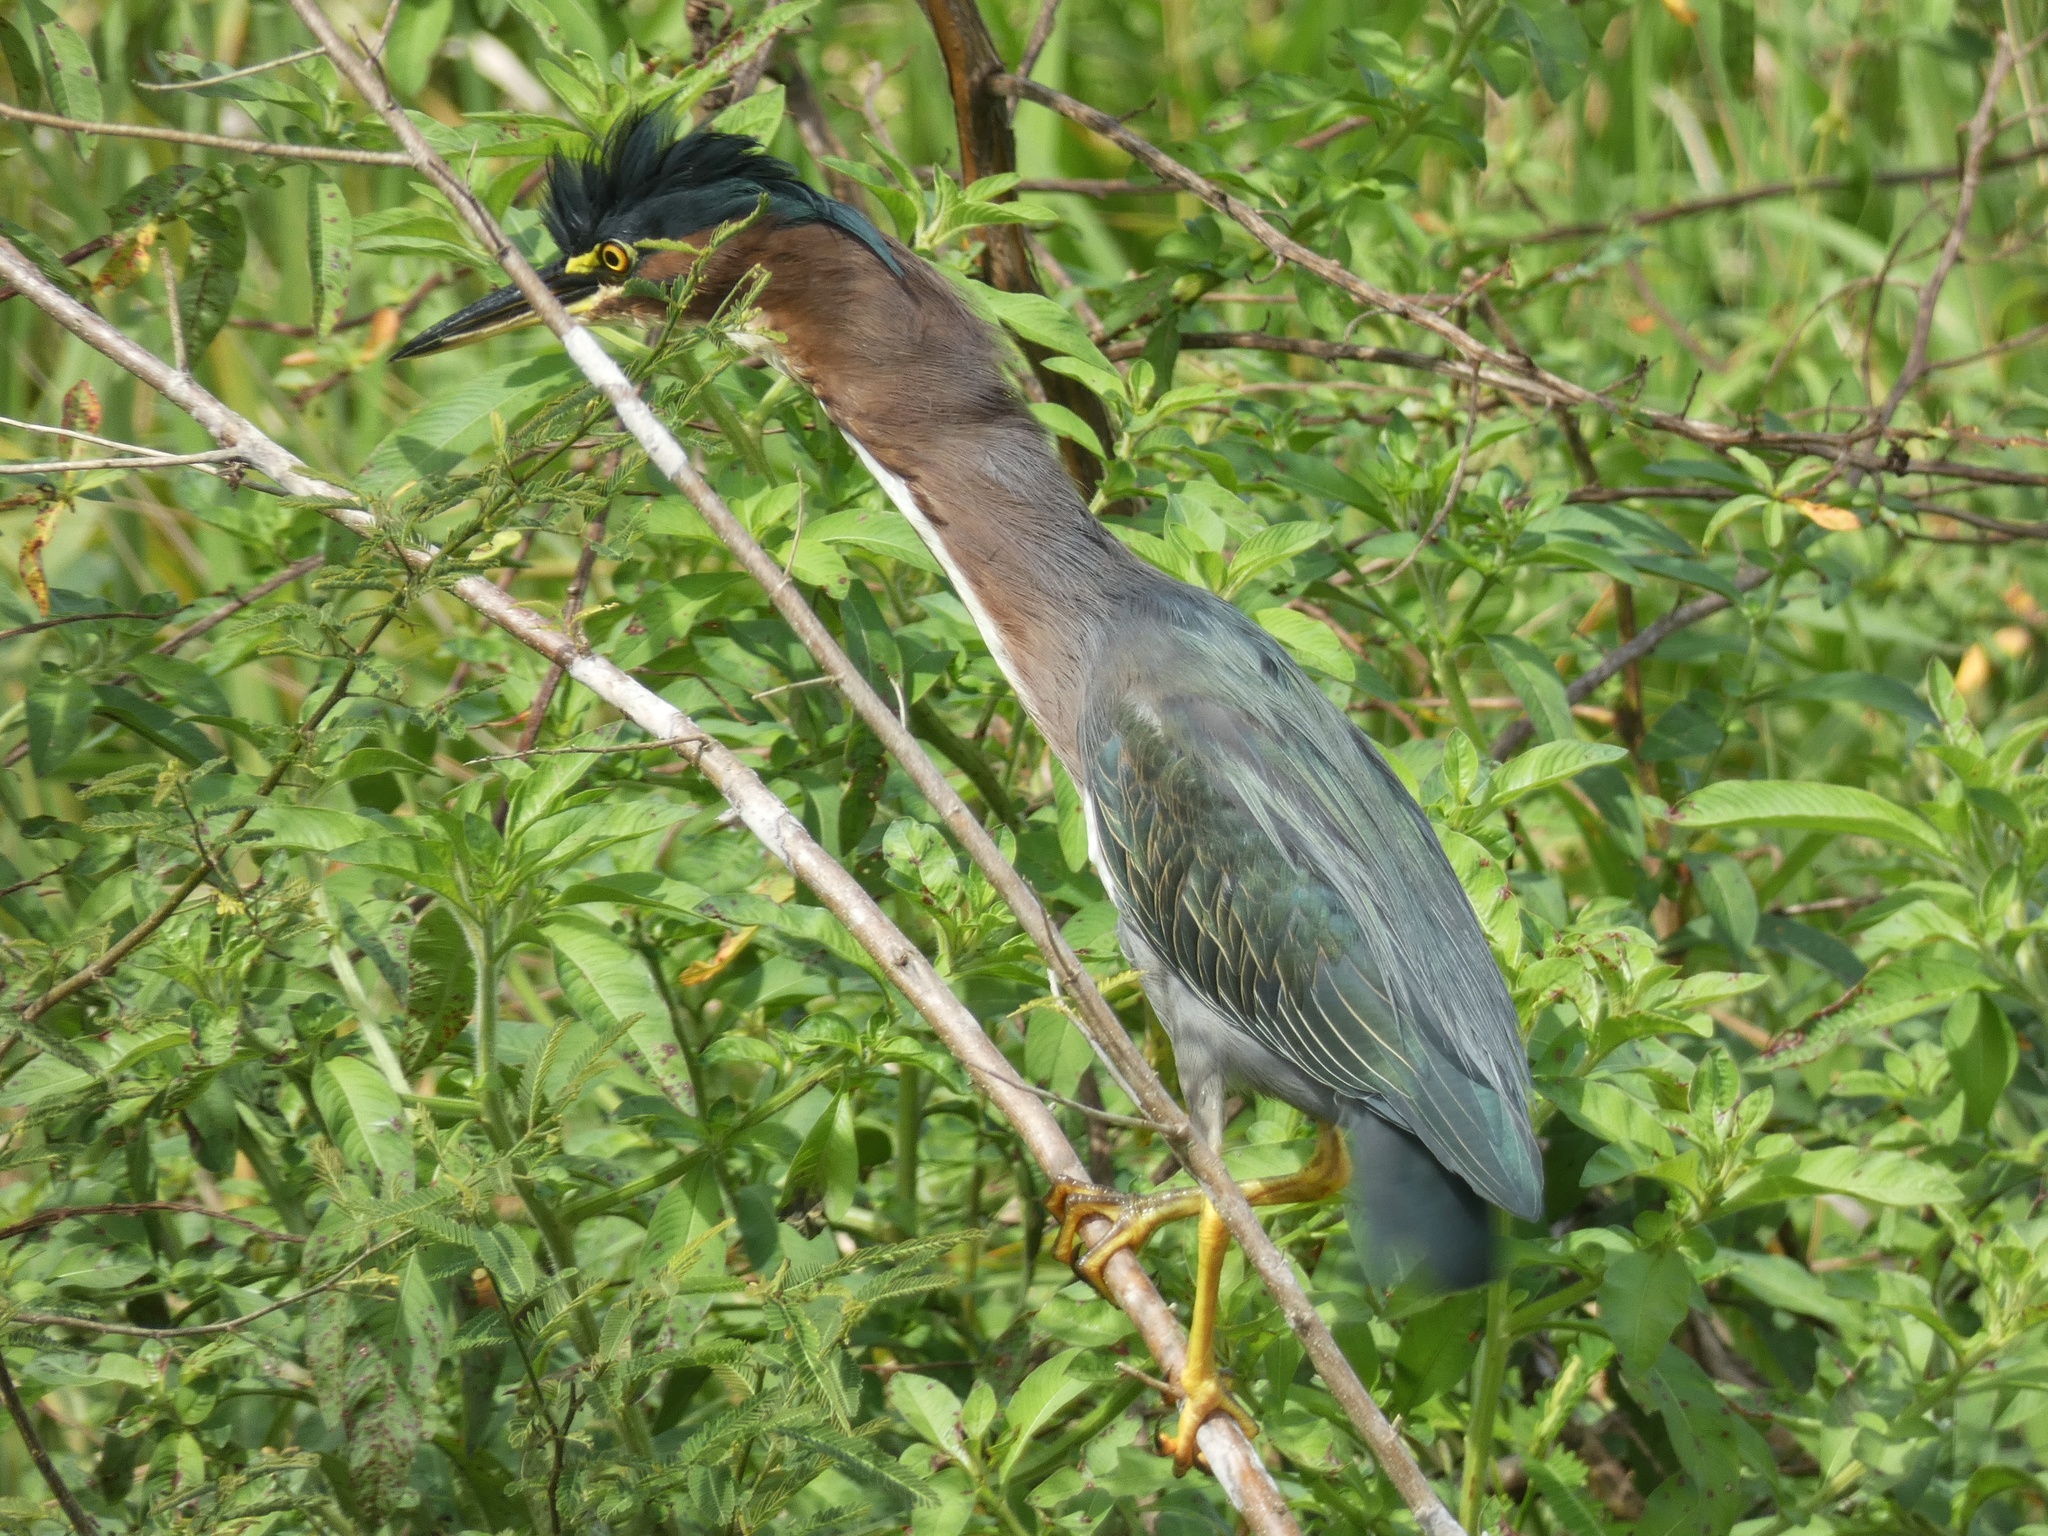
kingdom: Animalia
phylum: Chordata
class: Aves
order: Pelecaniformes
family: Ardeidae
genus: Butorides
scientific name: Butorides virescens
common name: Green heron
